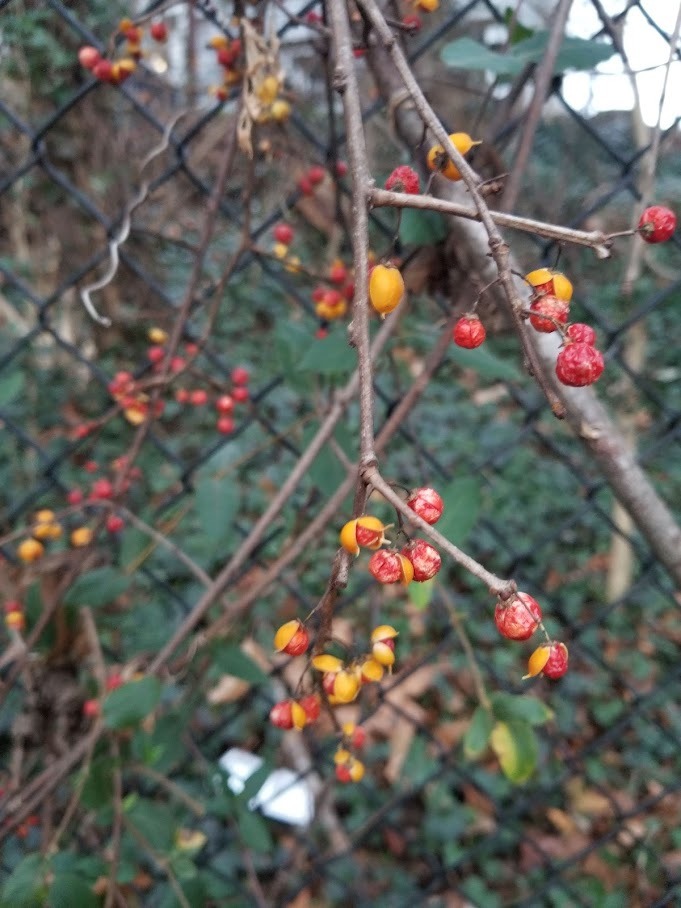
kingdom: Plantae
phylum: Tracheophyta
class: Magnoliopsida
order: Celastrales
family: Celastraceae
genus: Celastrus
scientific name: Celastrus orbiculatus
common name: Oriental bittersweet
